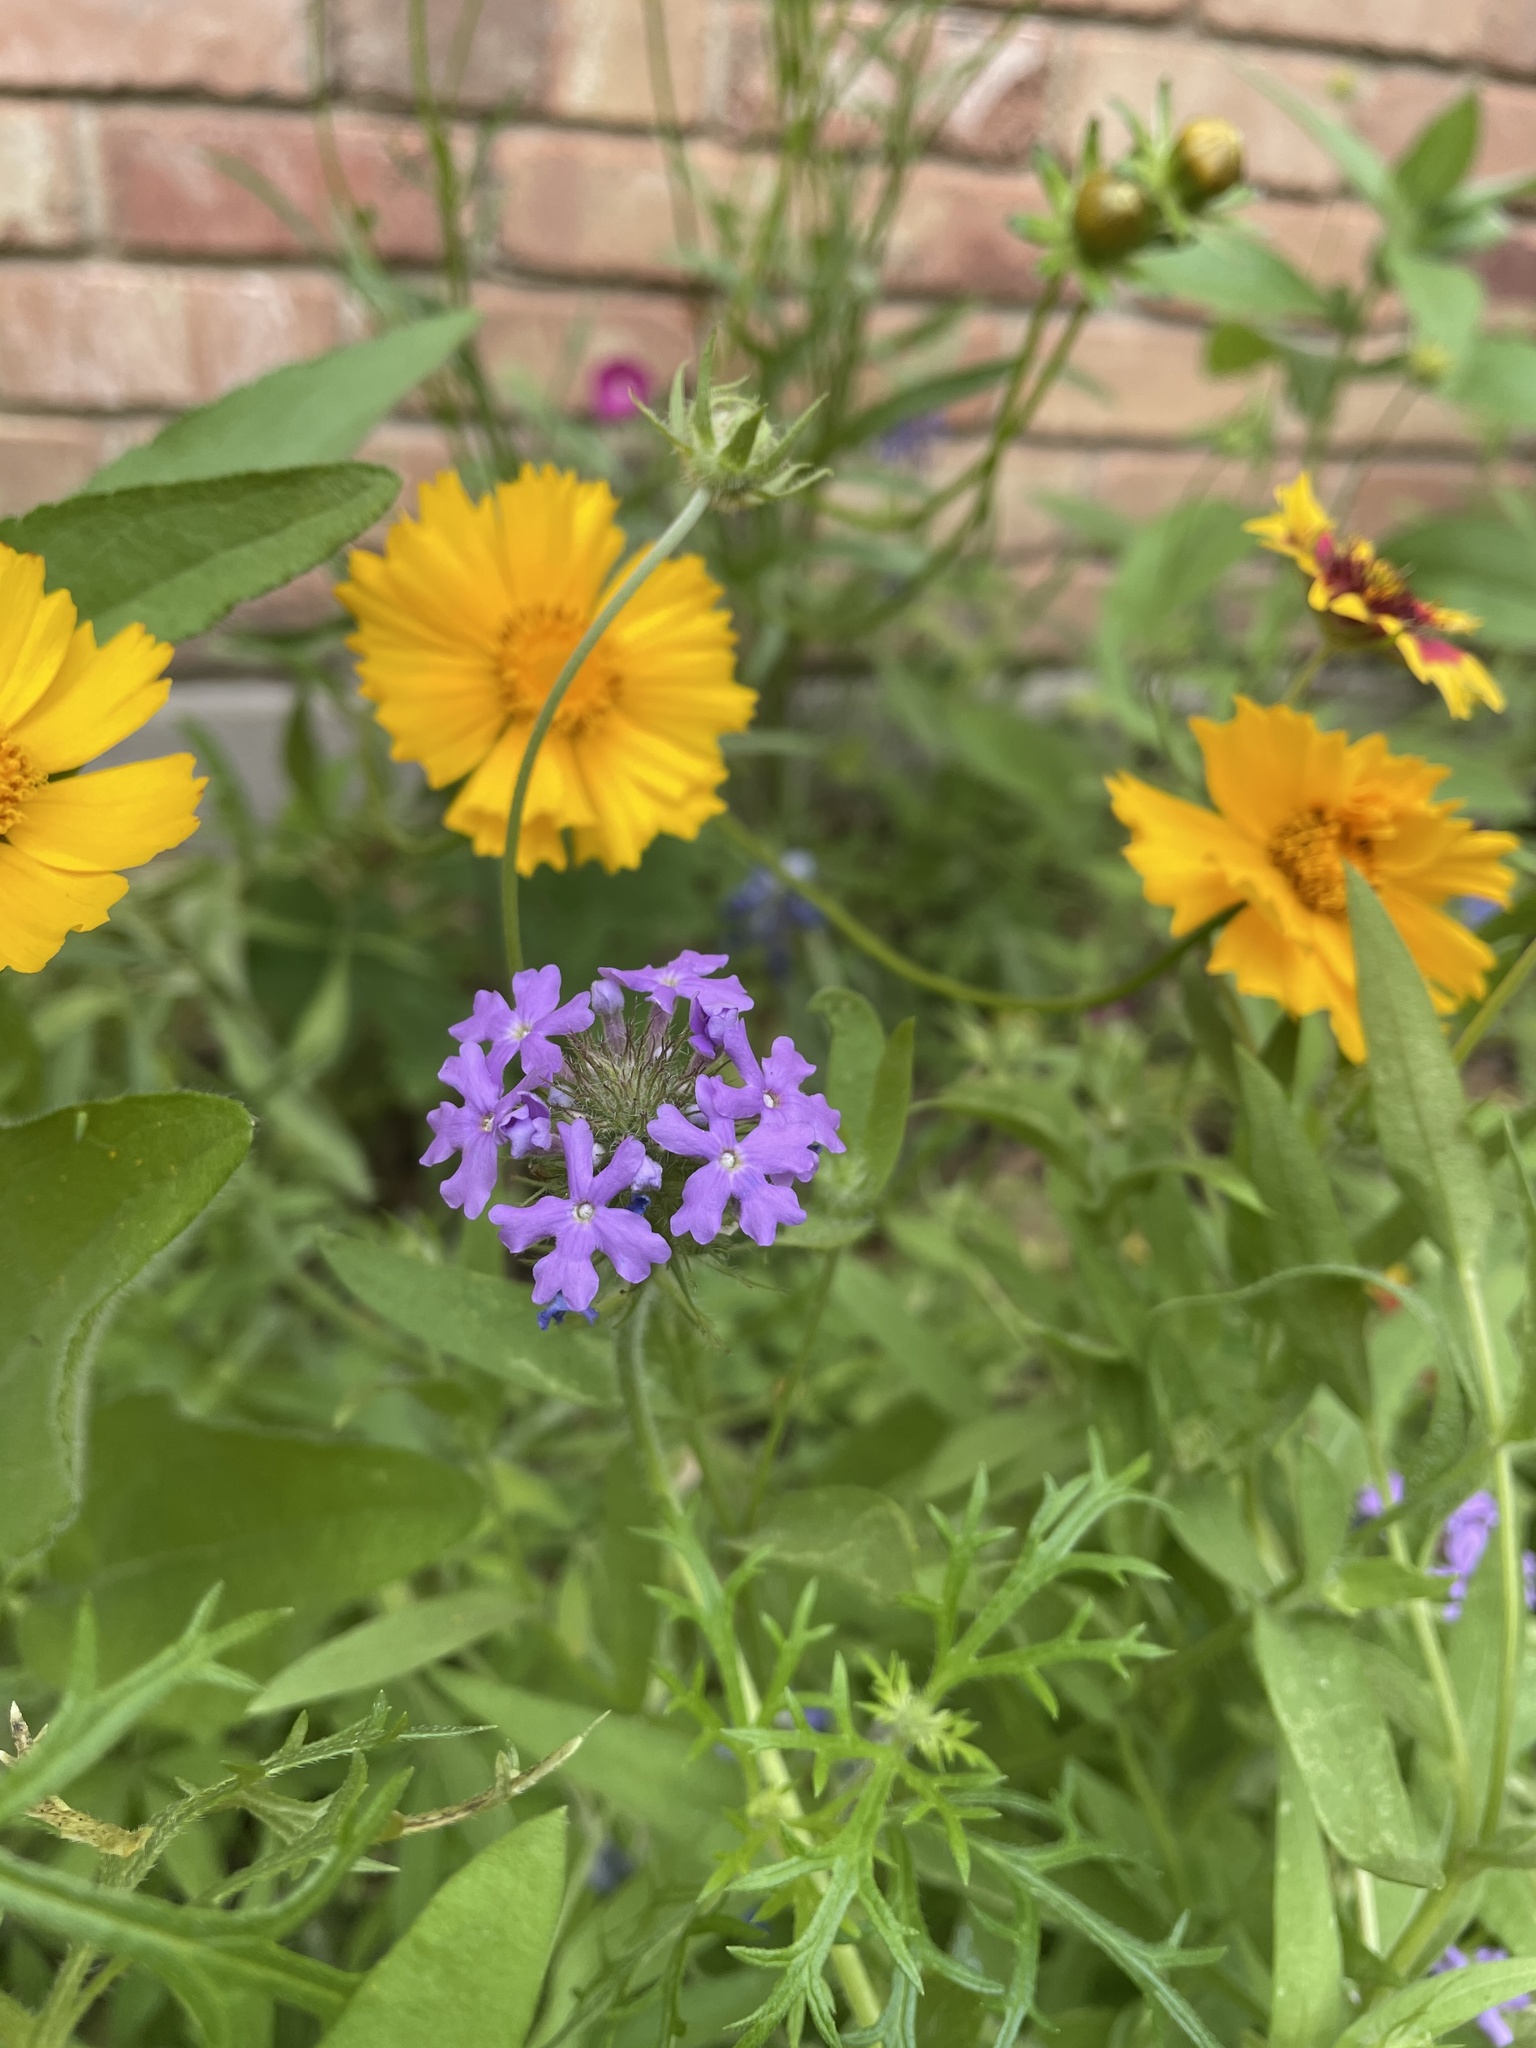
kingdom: Plantae
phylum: Tracheophyta
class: Magnoliopsida
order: Lamiales
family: Verbenaceae
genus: Verbena
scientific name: Verbena bipinnatifida
